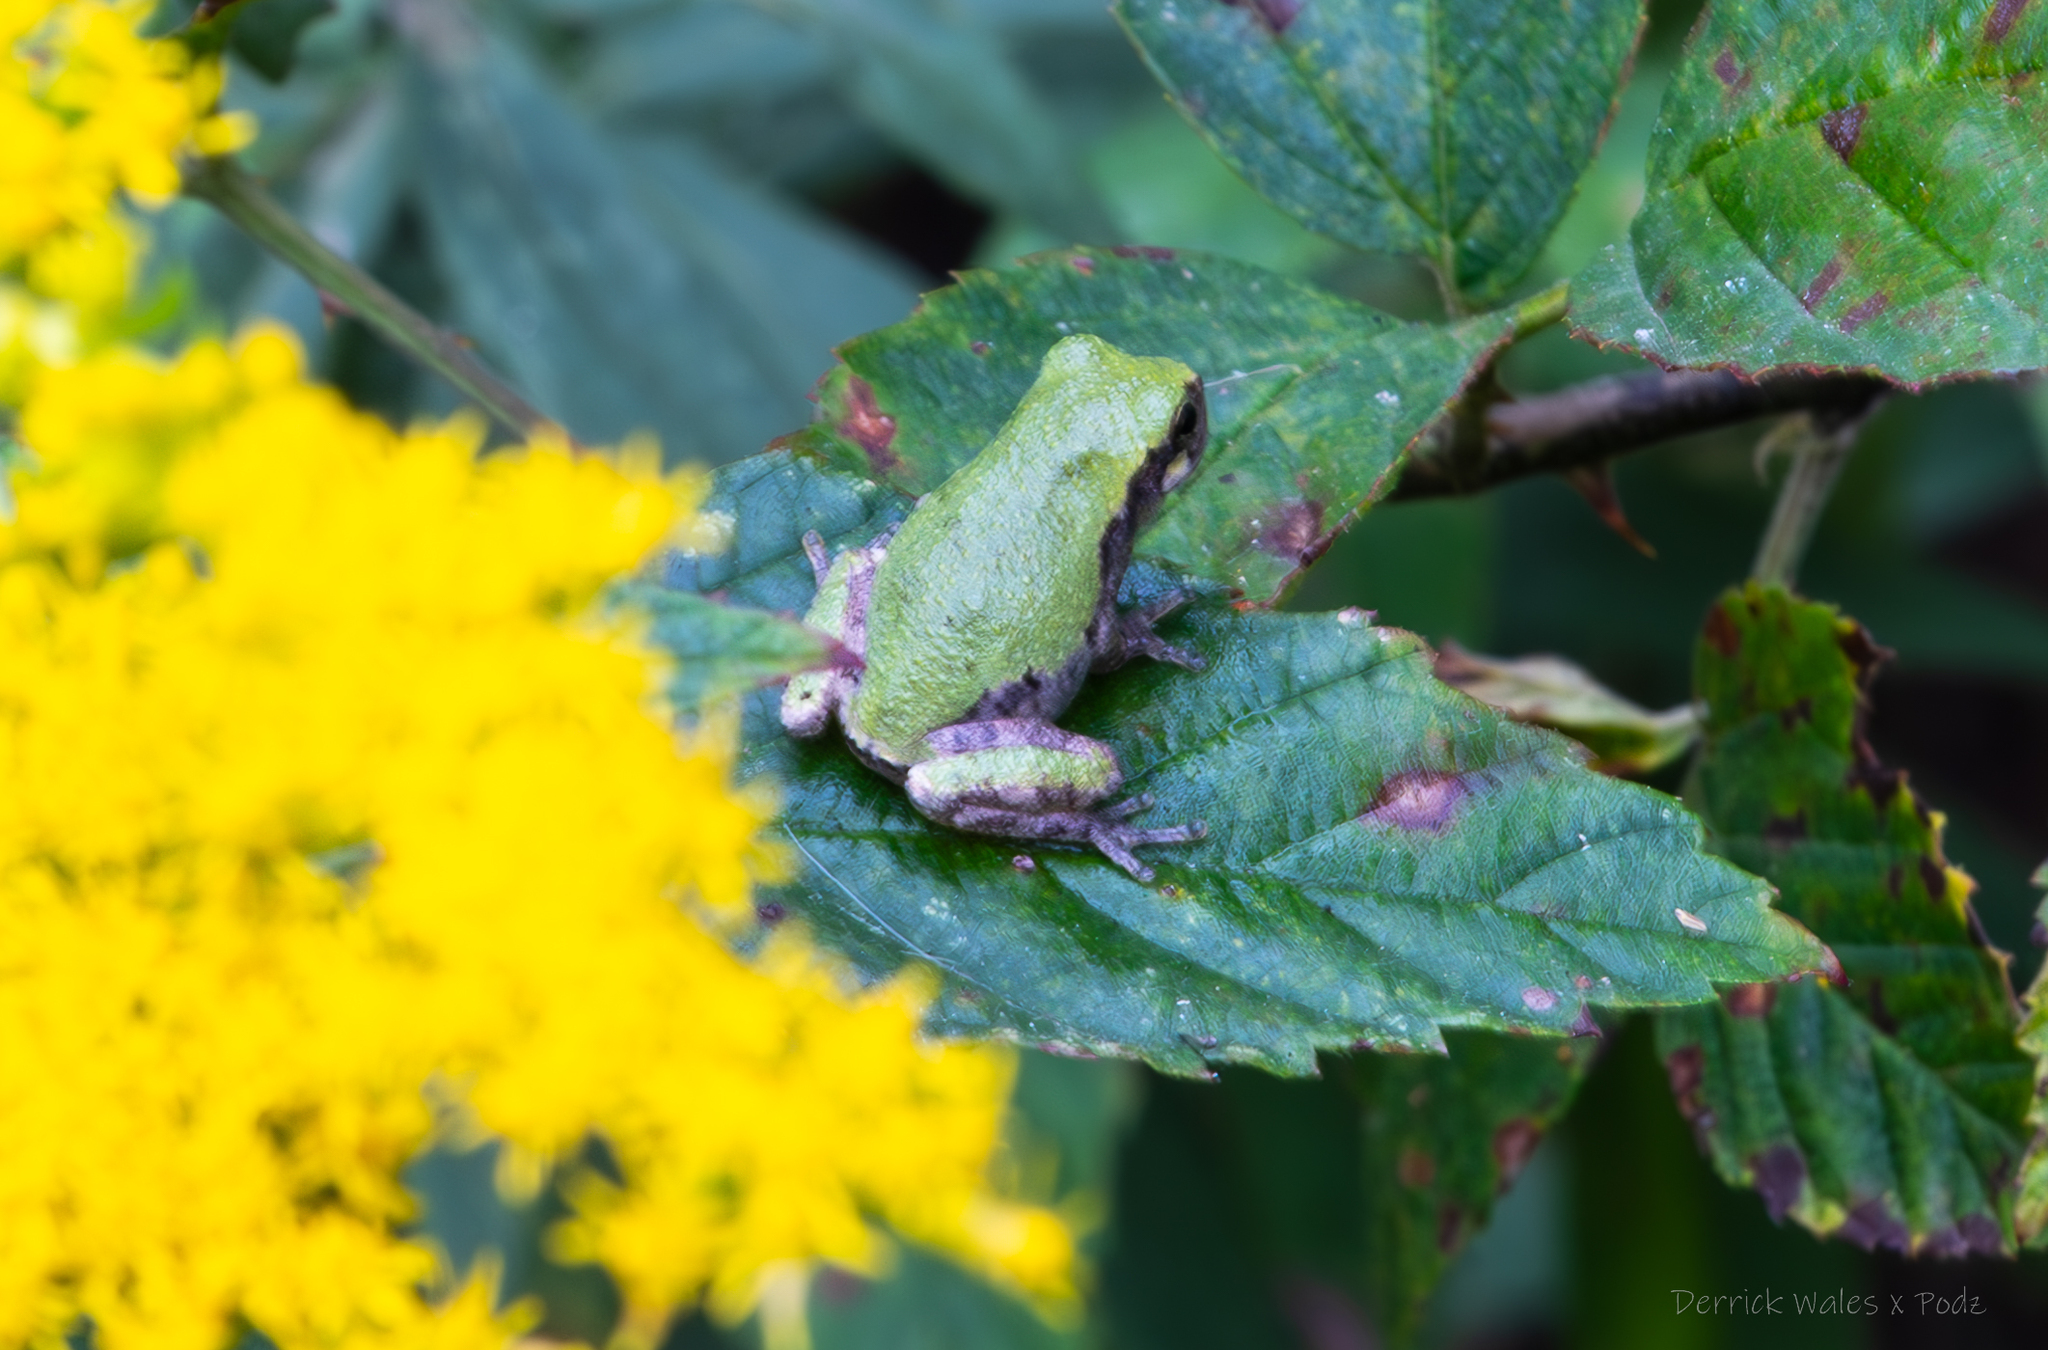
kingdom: Animalia
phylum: Chordata
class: Amphibia
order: Anura
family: Hylidae
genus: Dryophytes
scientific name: Dryophytes chrysoscelis
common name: Cope's gray treefrog
